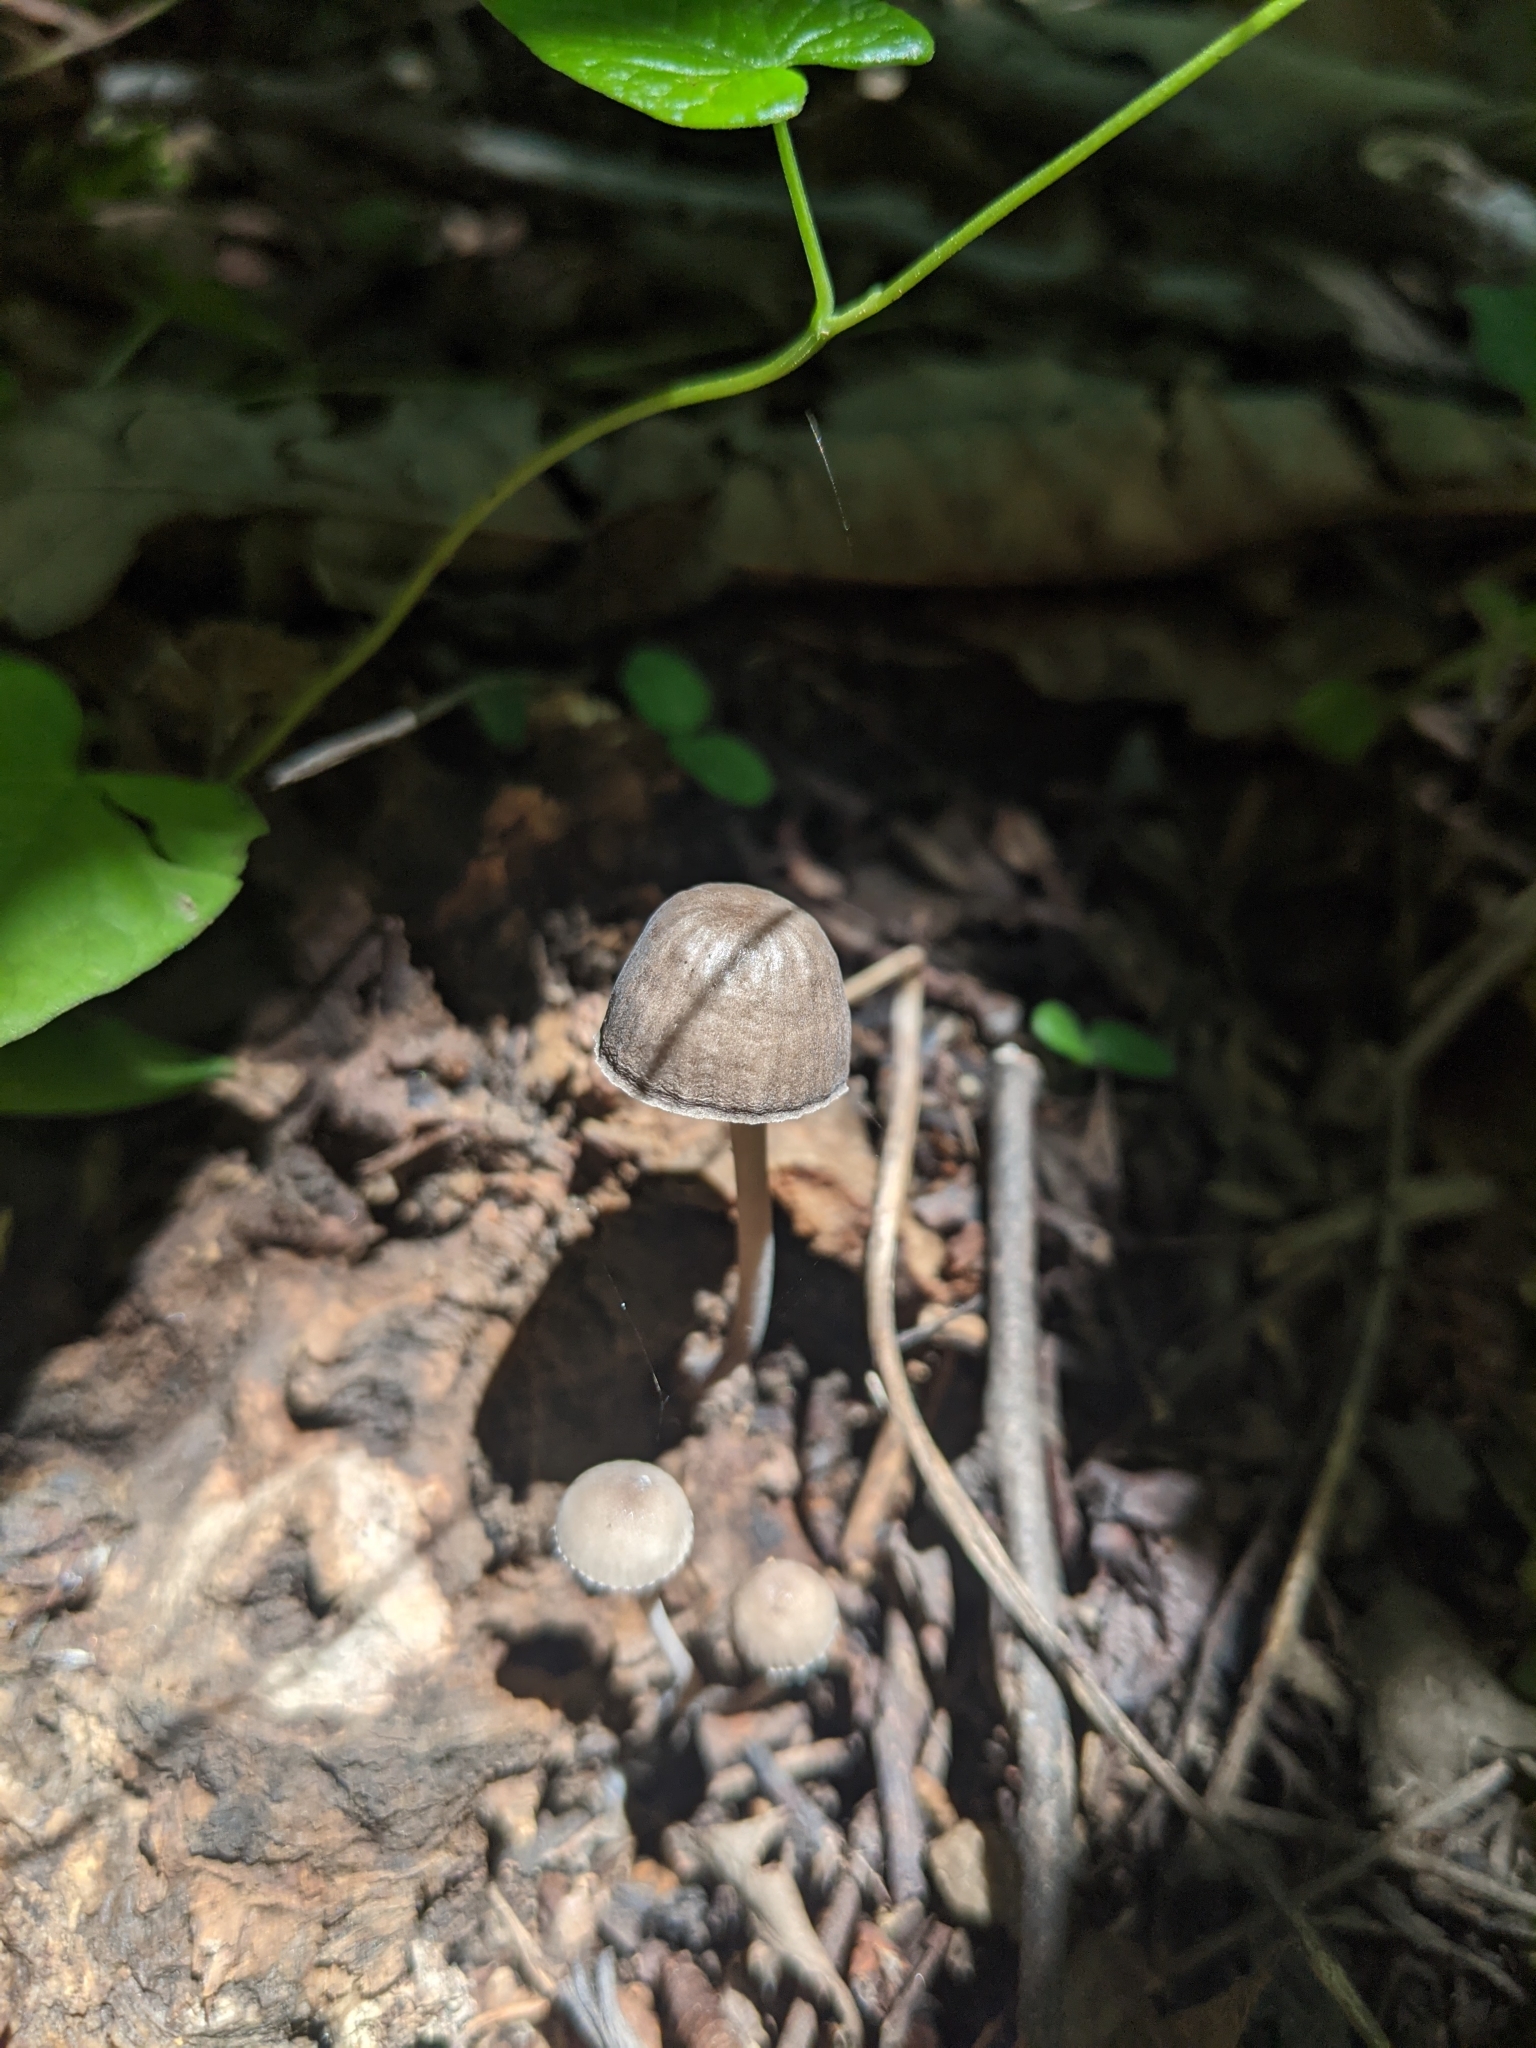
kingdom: Fungi
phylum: Basidiomycota
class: Agaricomycetes
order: Agaricales
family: Bolbitiaceae
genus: Panaeolus
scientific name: Panaeolus papilionaceus
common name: Petticoat mottlegill
